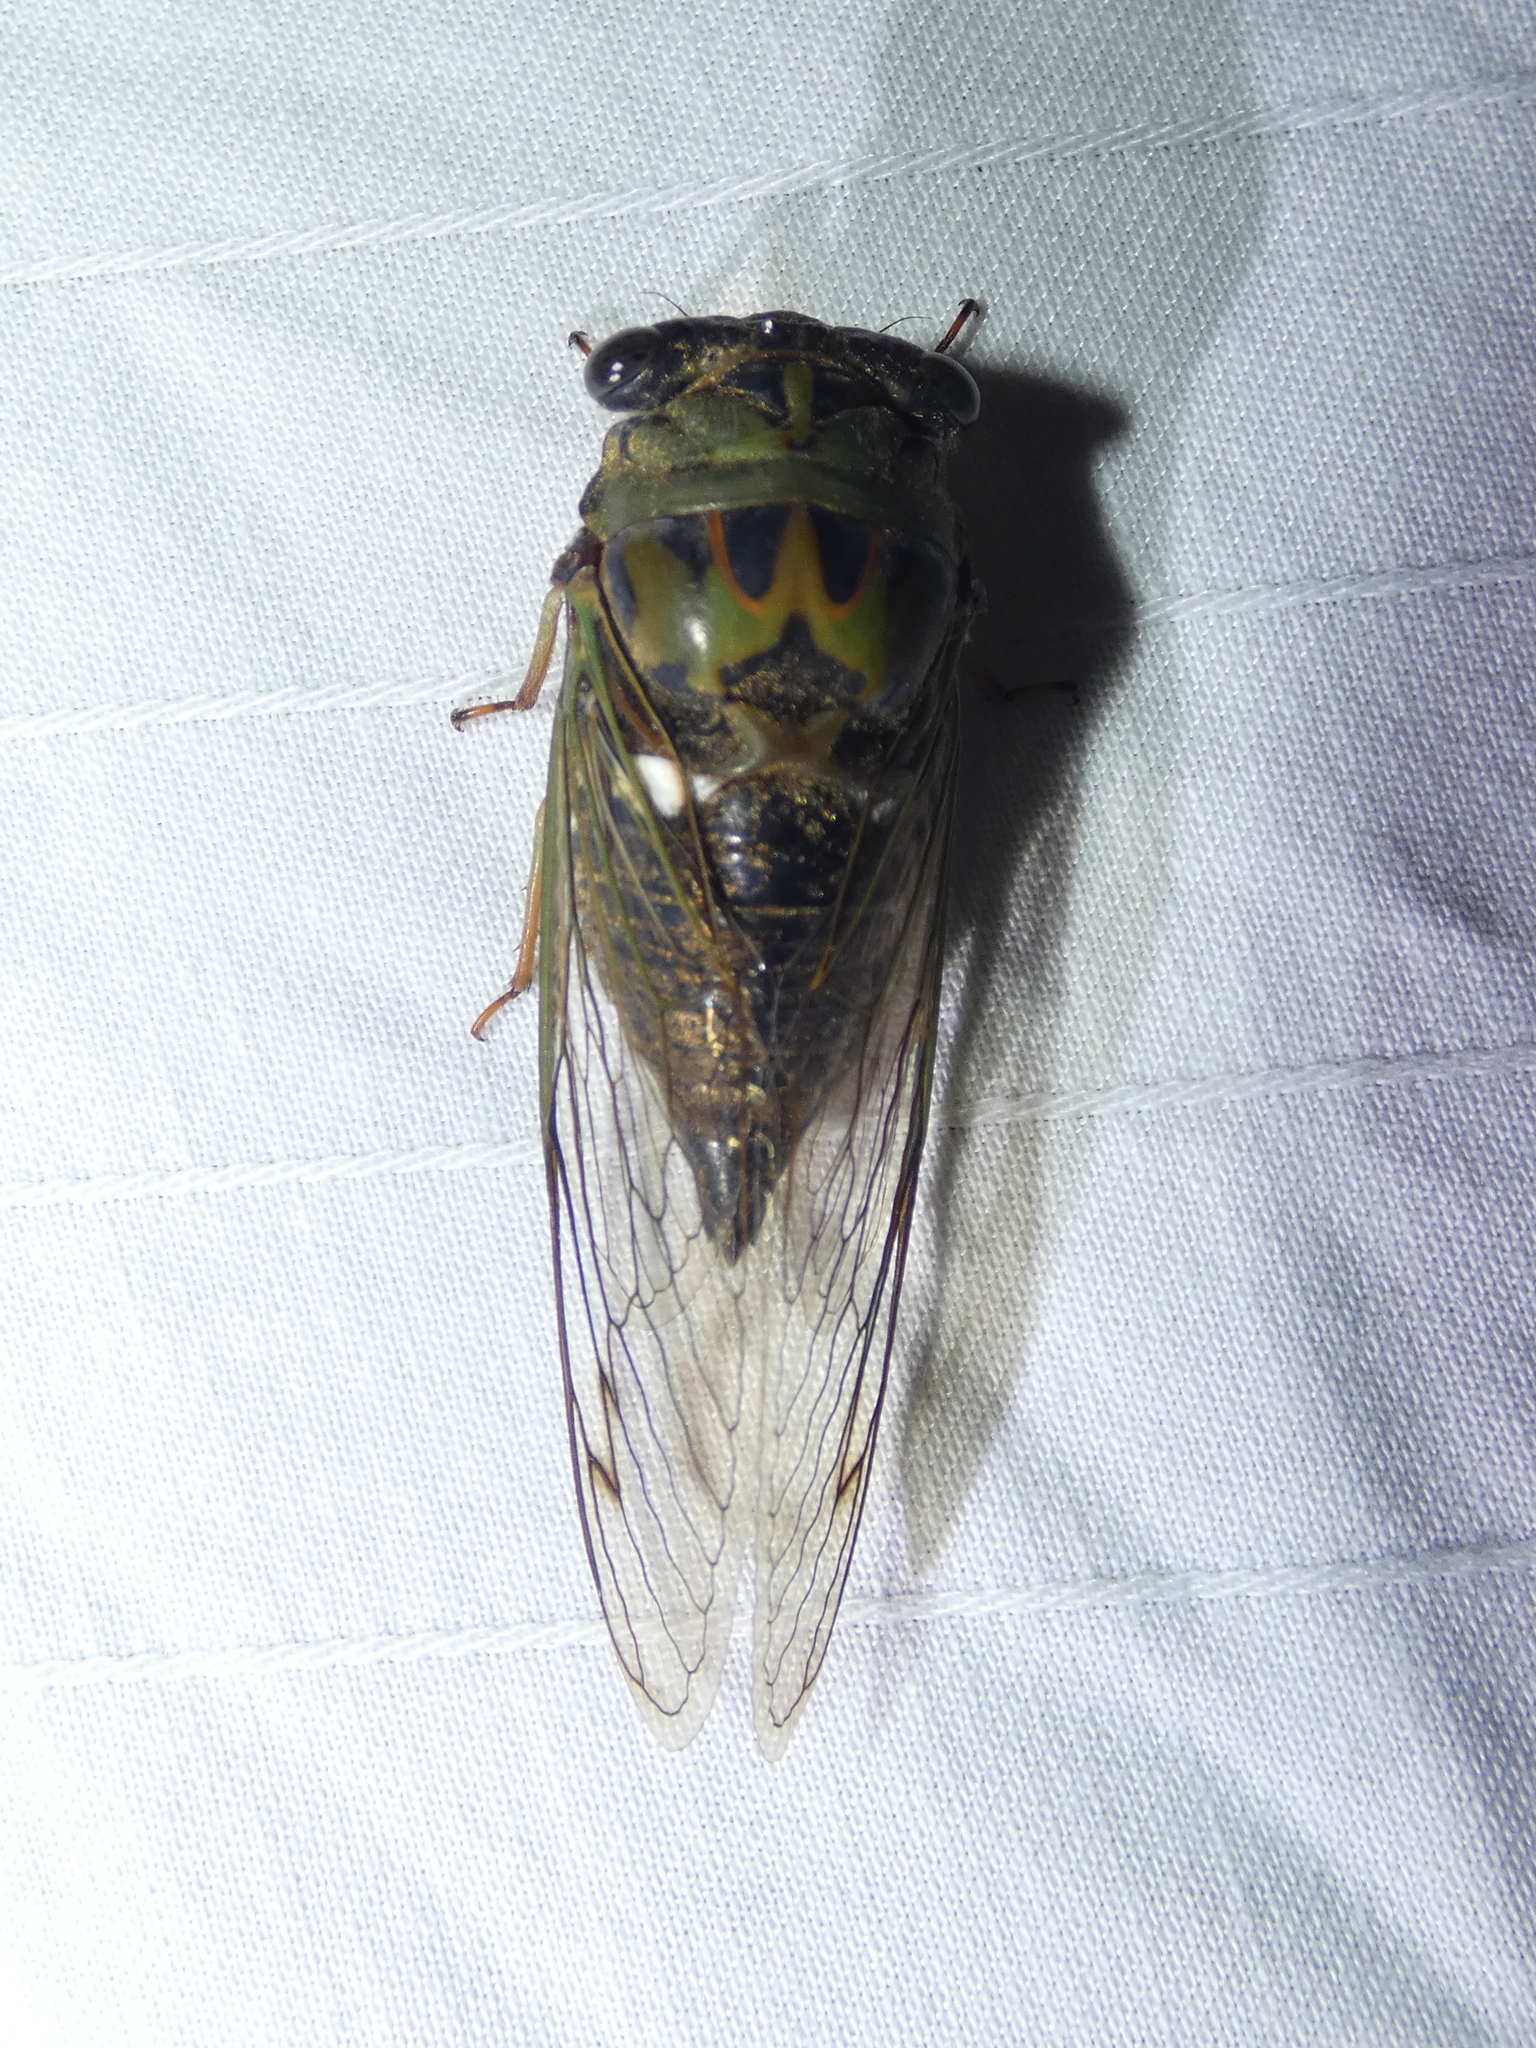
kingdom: Animalia
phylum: Arthropoda
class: Insecta
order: Hemiptera
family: Cicadidae
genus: Neotibicen
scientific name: Neotibicen pruinosus
